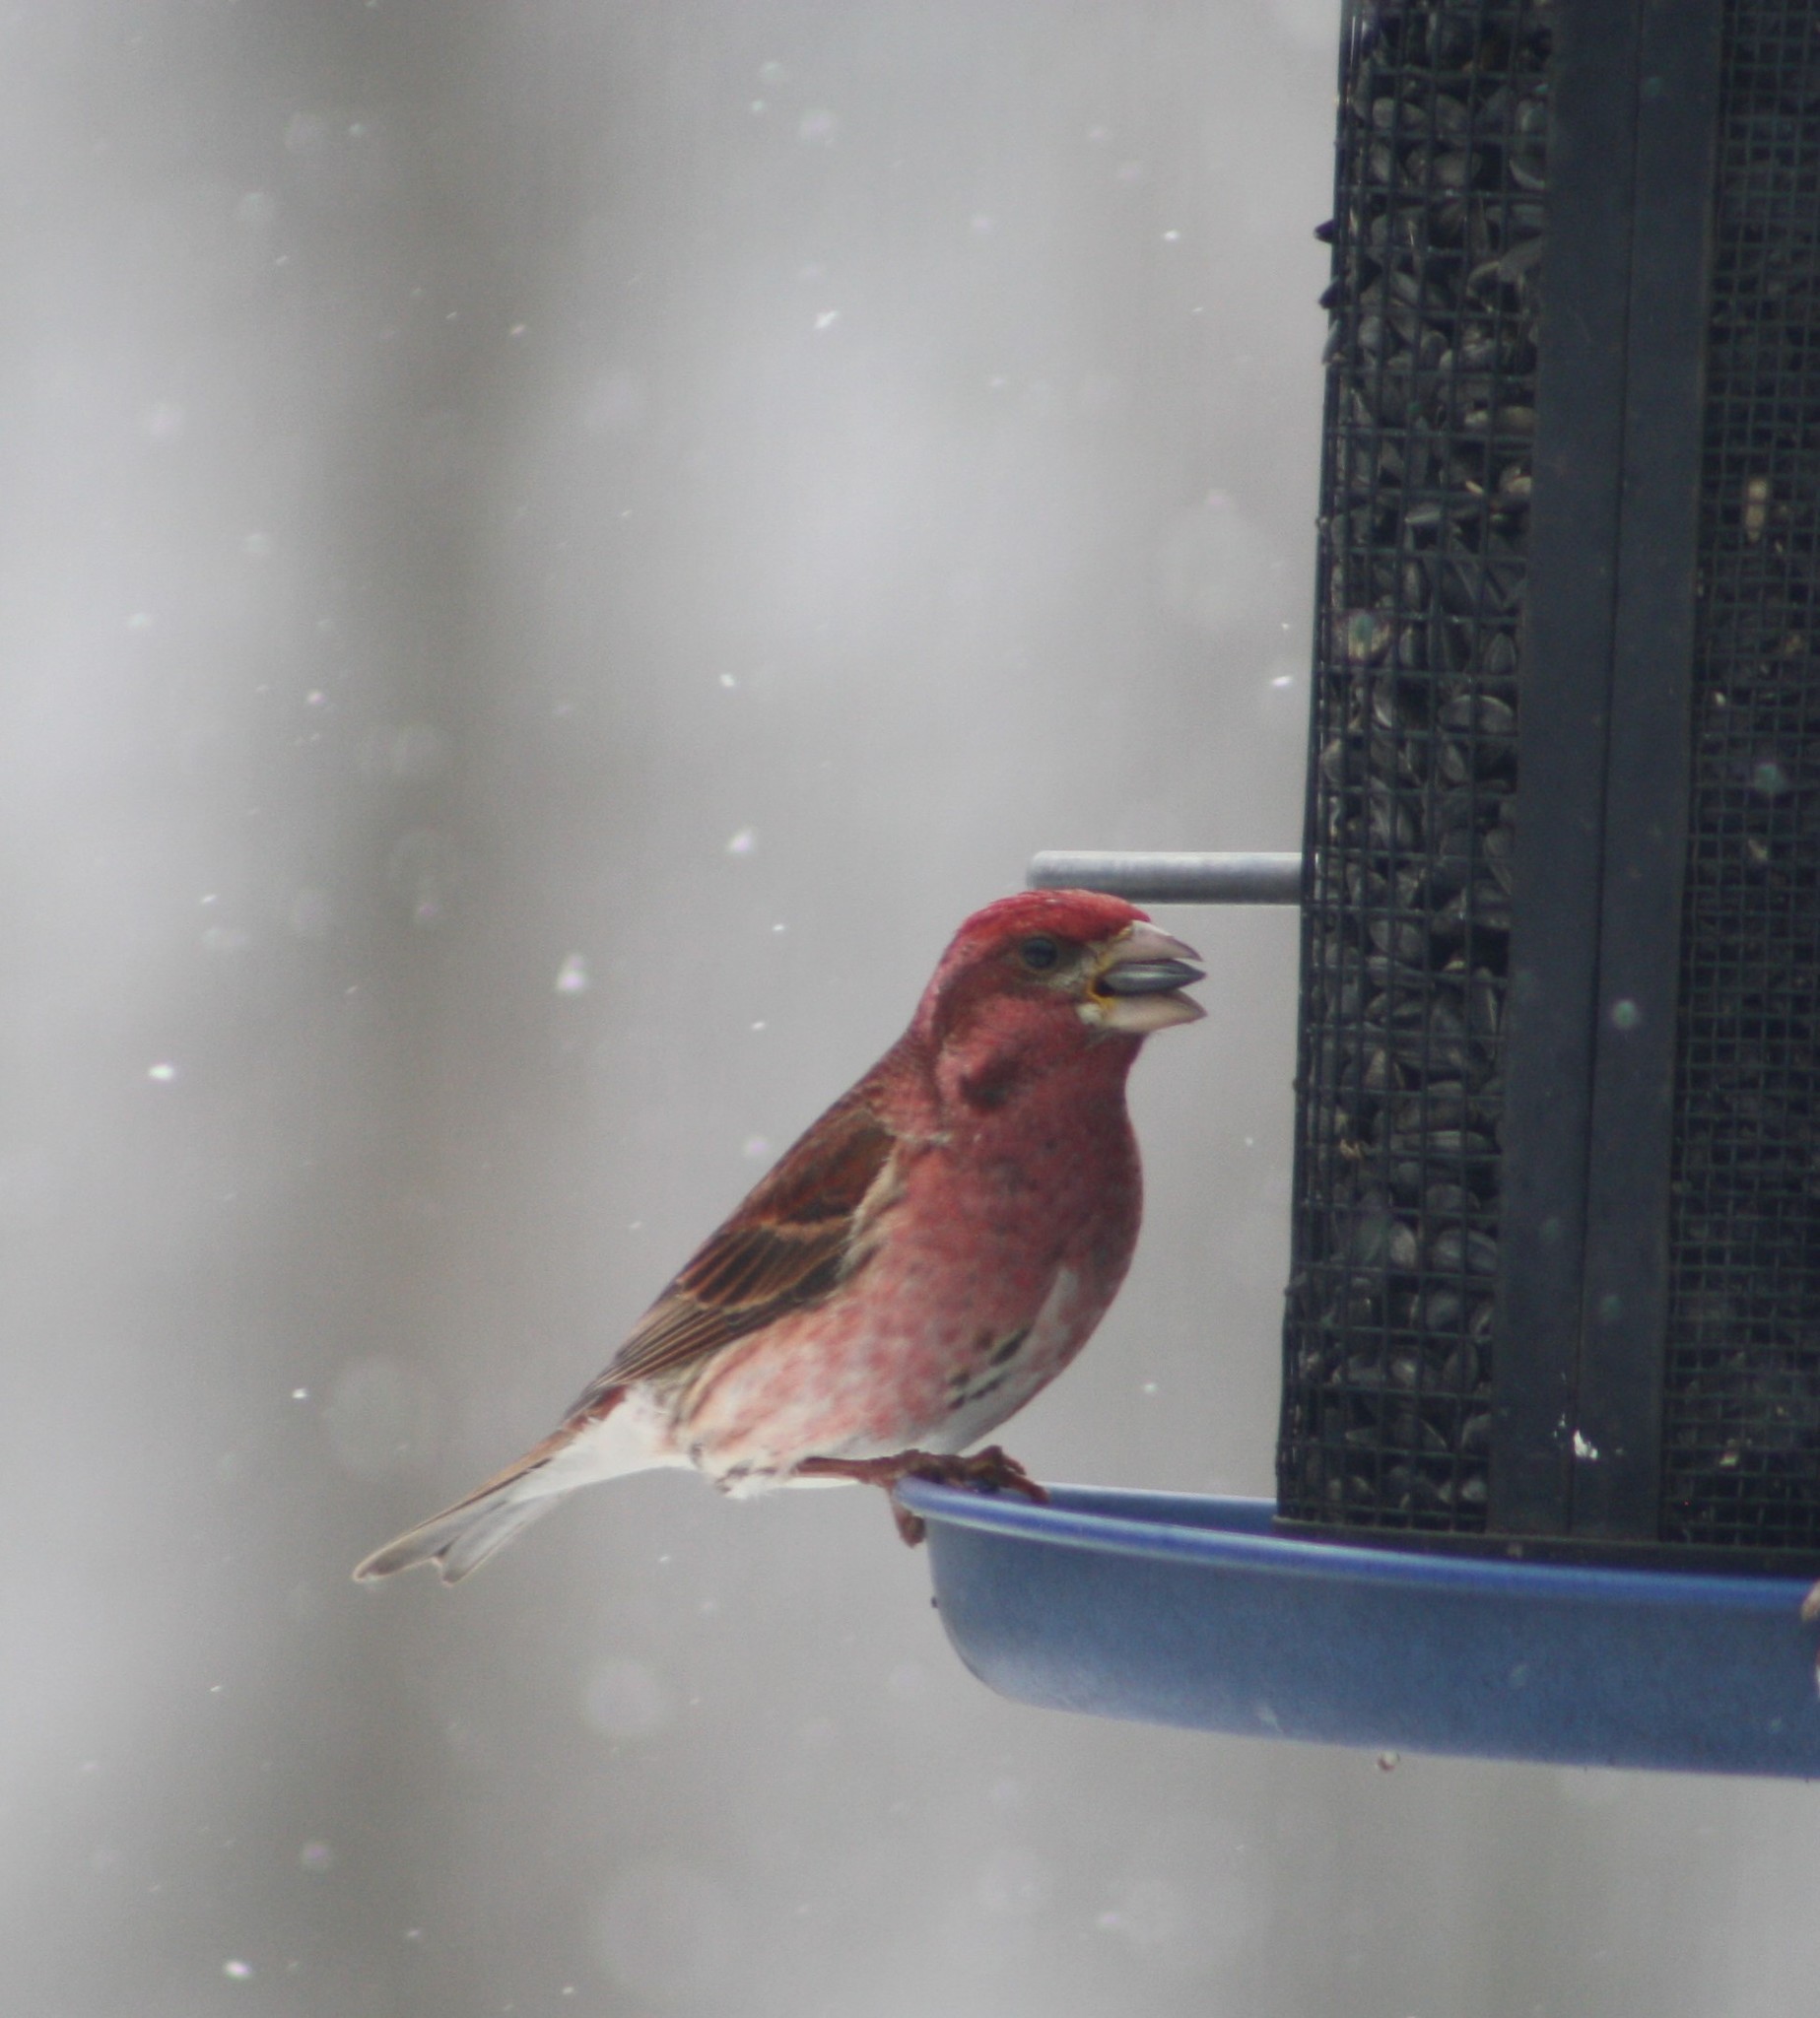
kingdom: Animalia
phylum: Chordata
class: Aves
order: Passeriformes
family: Fringillidae
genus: Haemorhous
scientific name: Haemorhous purpureus
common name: Purple finch
